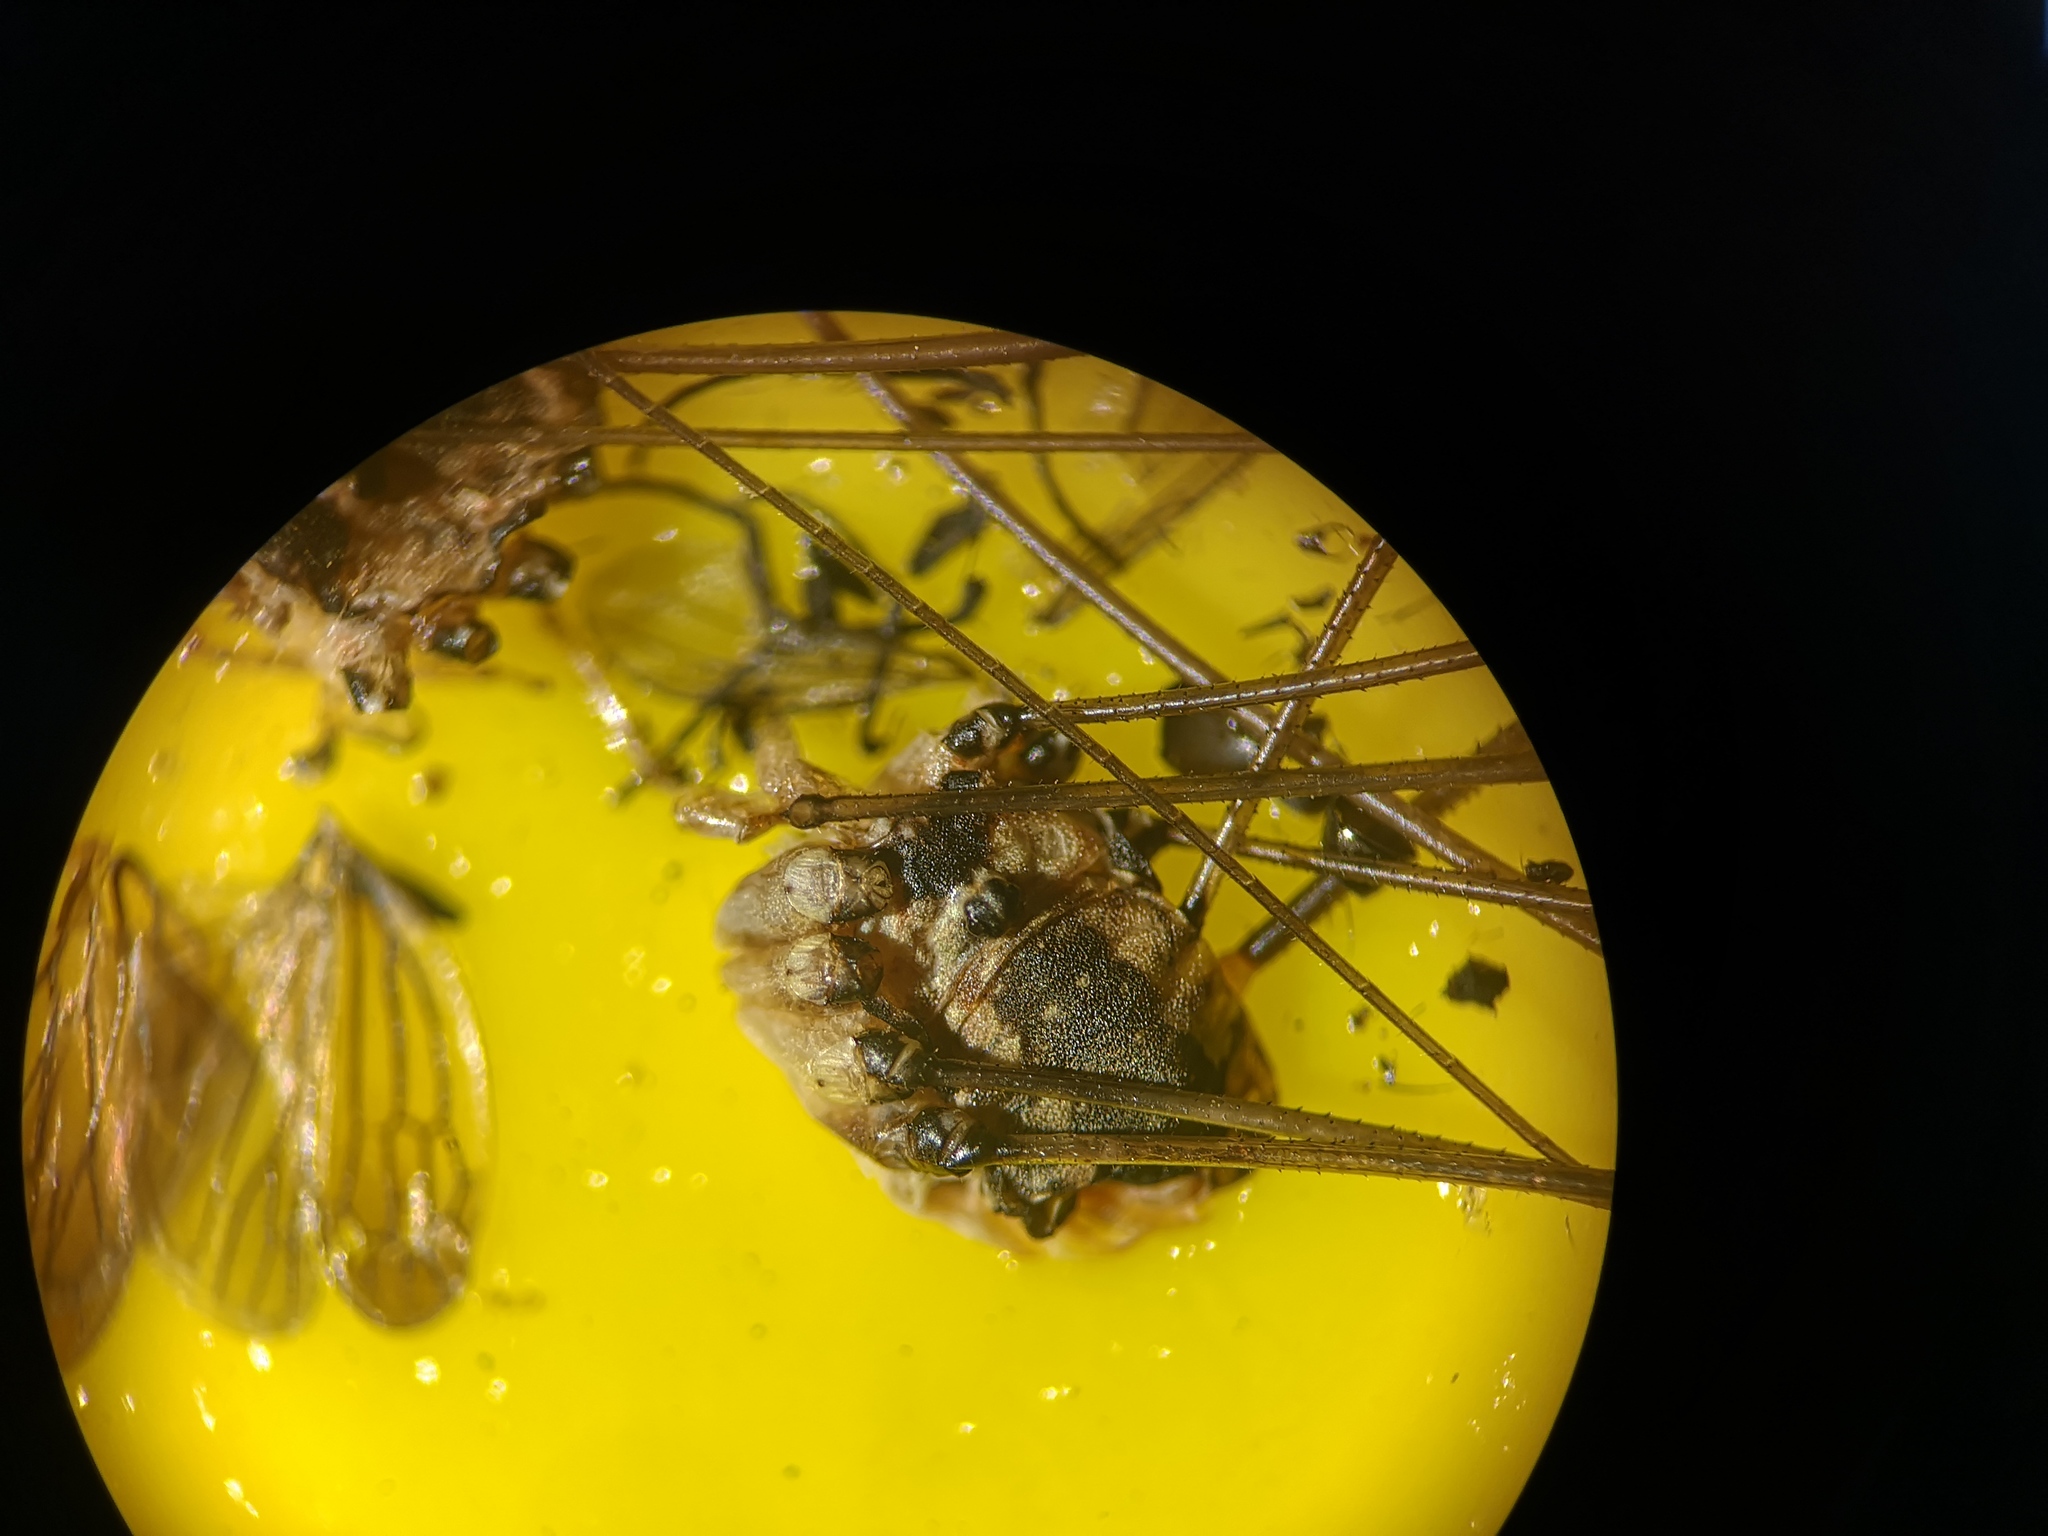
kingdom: Animalia
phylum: Arthropoda
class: Arachnida
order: Opiliones
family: Sclerosomatidae
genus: Leiobunum
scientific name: Leiobunum rotundum
